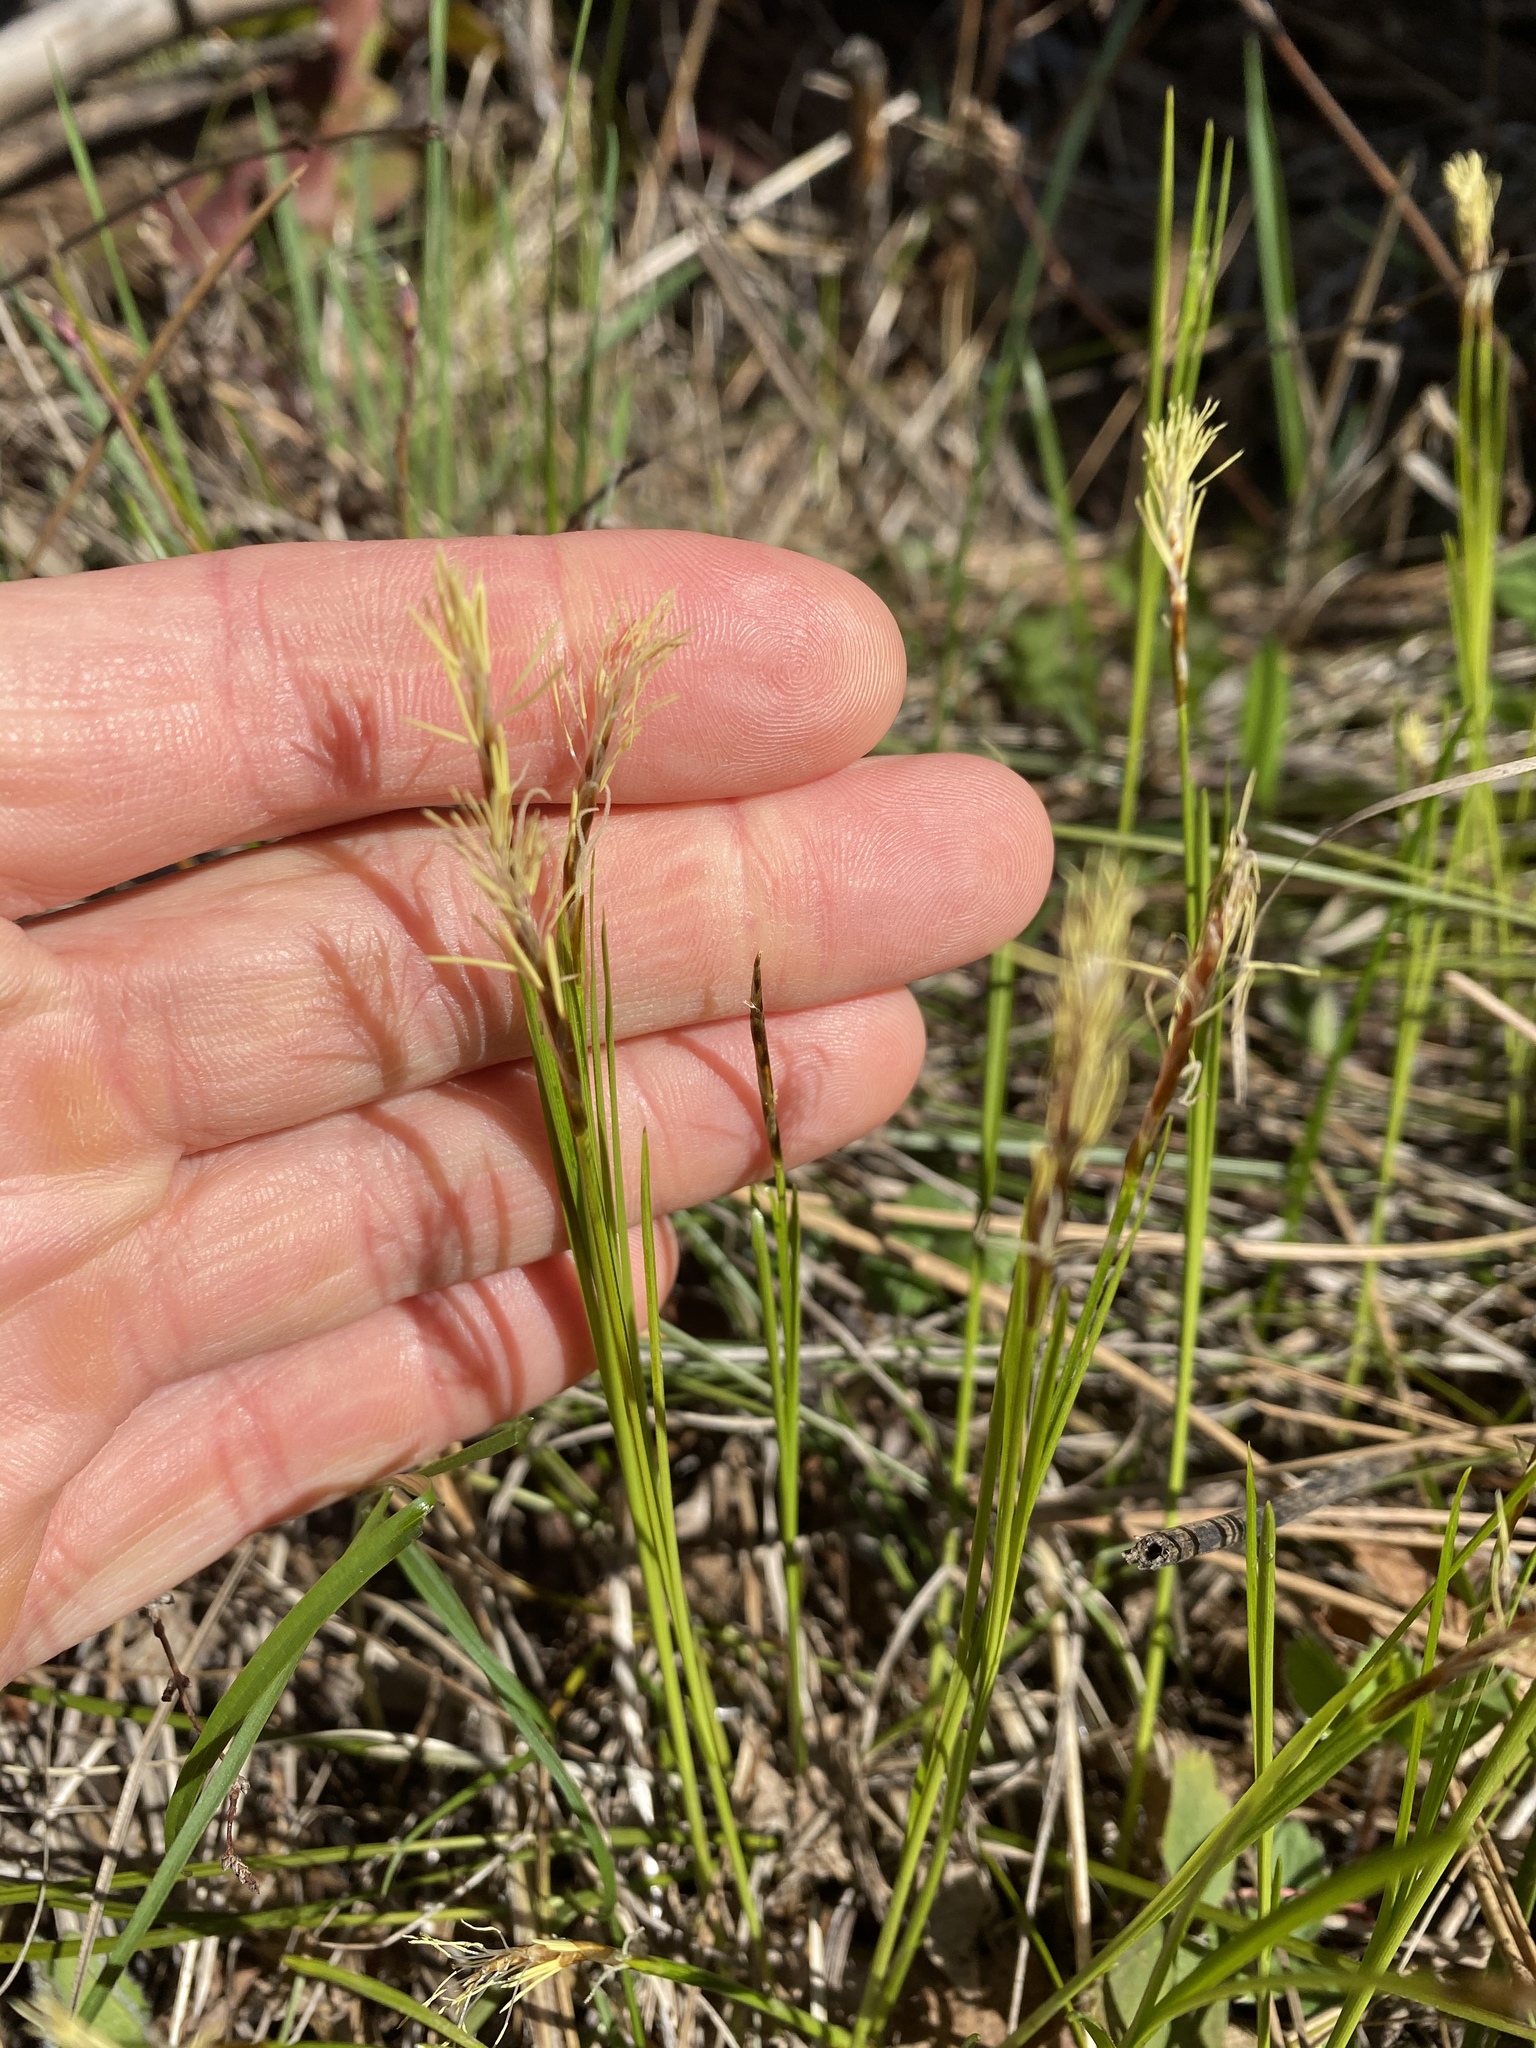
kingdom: Plantae
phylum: Tracheophyta
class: Liliopsida
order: Poales
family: Cyperaceae
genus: Carex
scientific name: Carex geyeri
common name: Elk sedge
